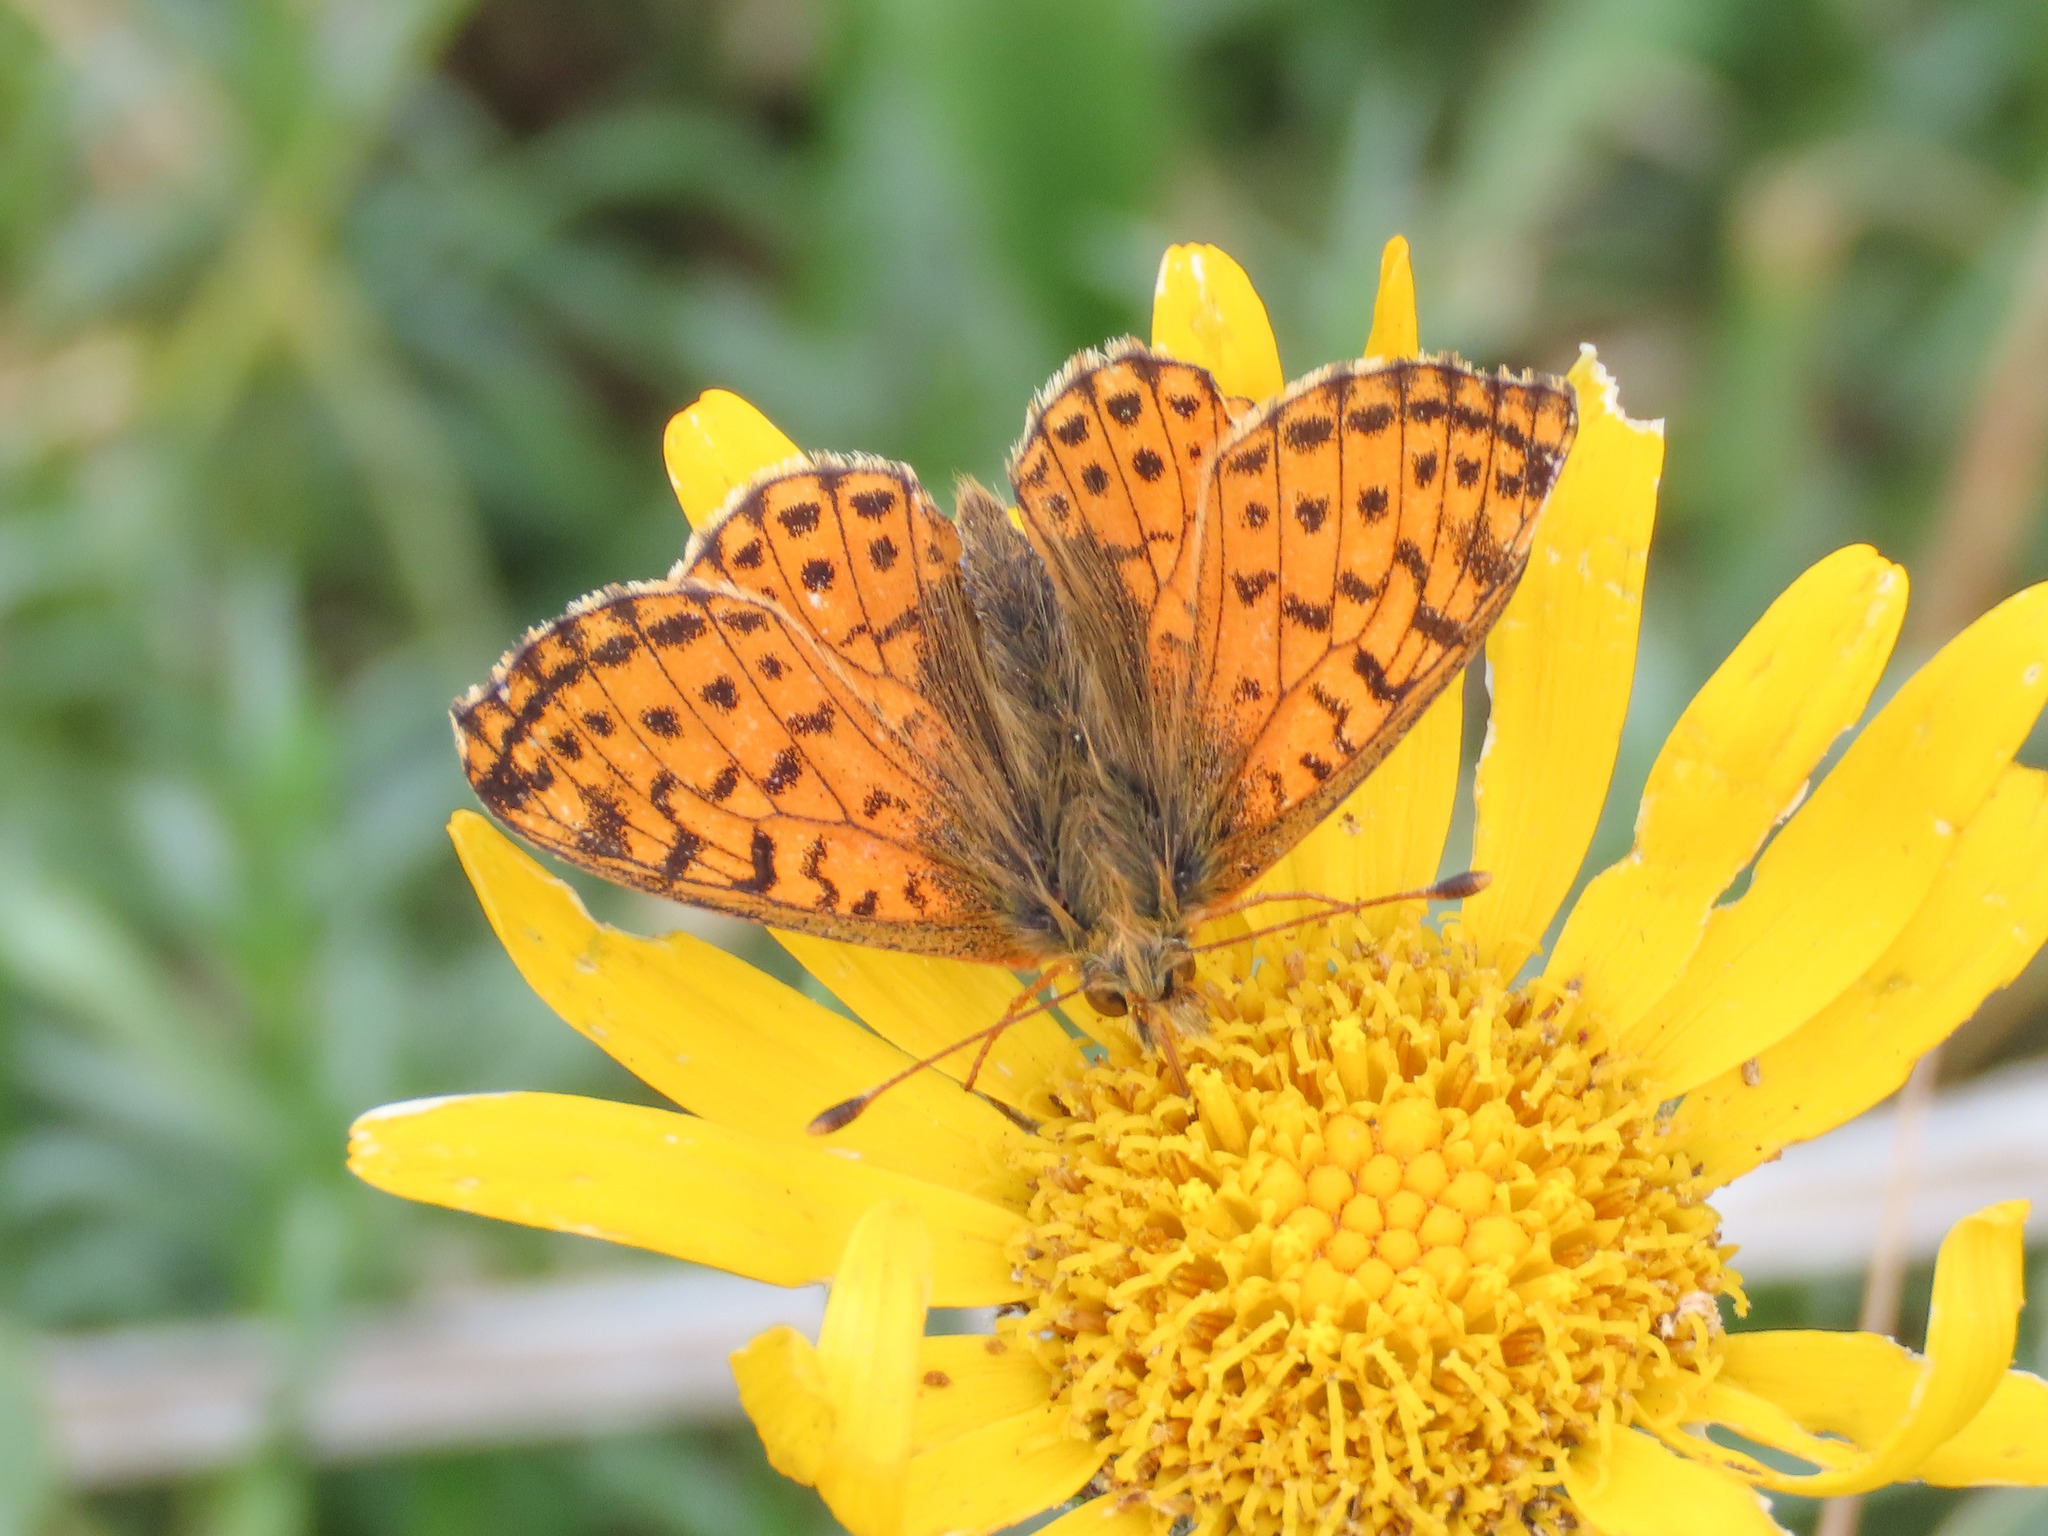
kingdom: Animalia
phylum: Arthropoda
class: Insecta
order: Lepidoptera
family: Nymphalidae
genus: Boloria
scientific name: Boloria pales
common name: Shepherd's fritillary
